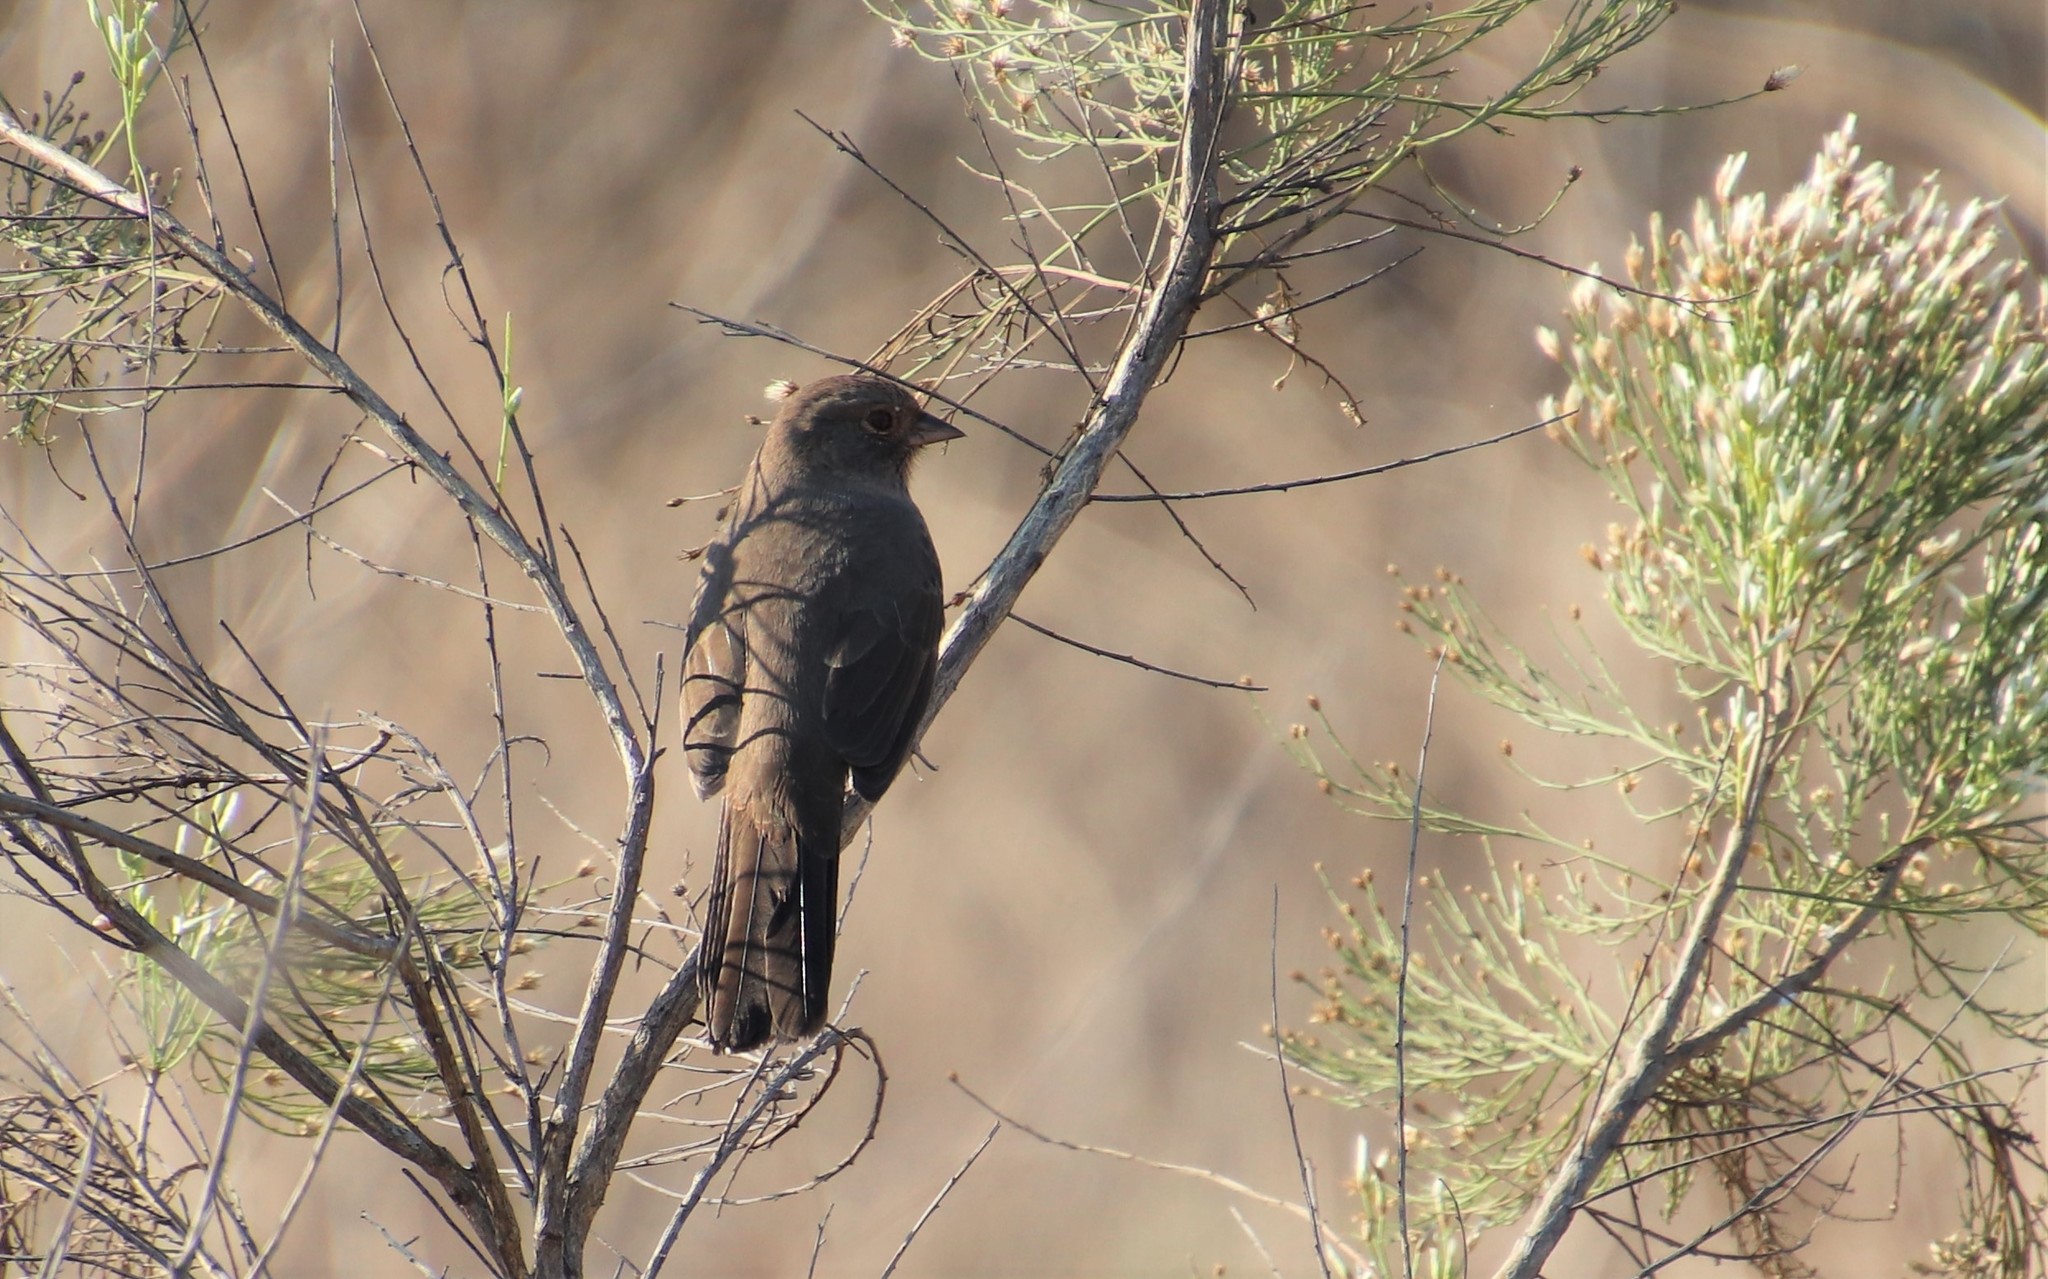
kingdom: Animalia
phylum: Chordata
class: Aves
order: Passeriformes
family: Passerellidae
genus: Melozone
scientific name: Melozone crissalis
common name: California towhee
